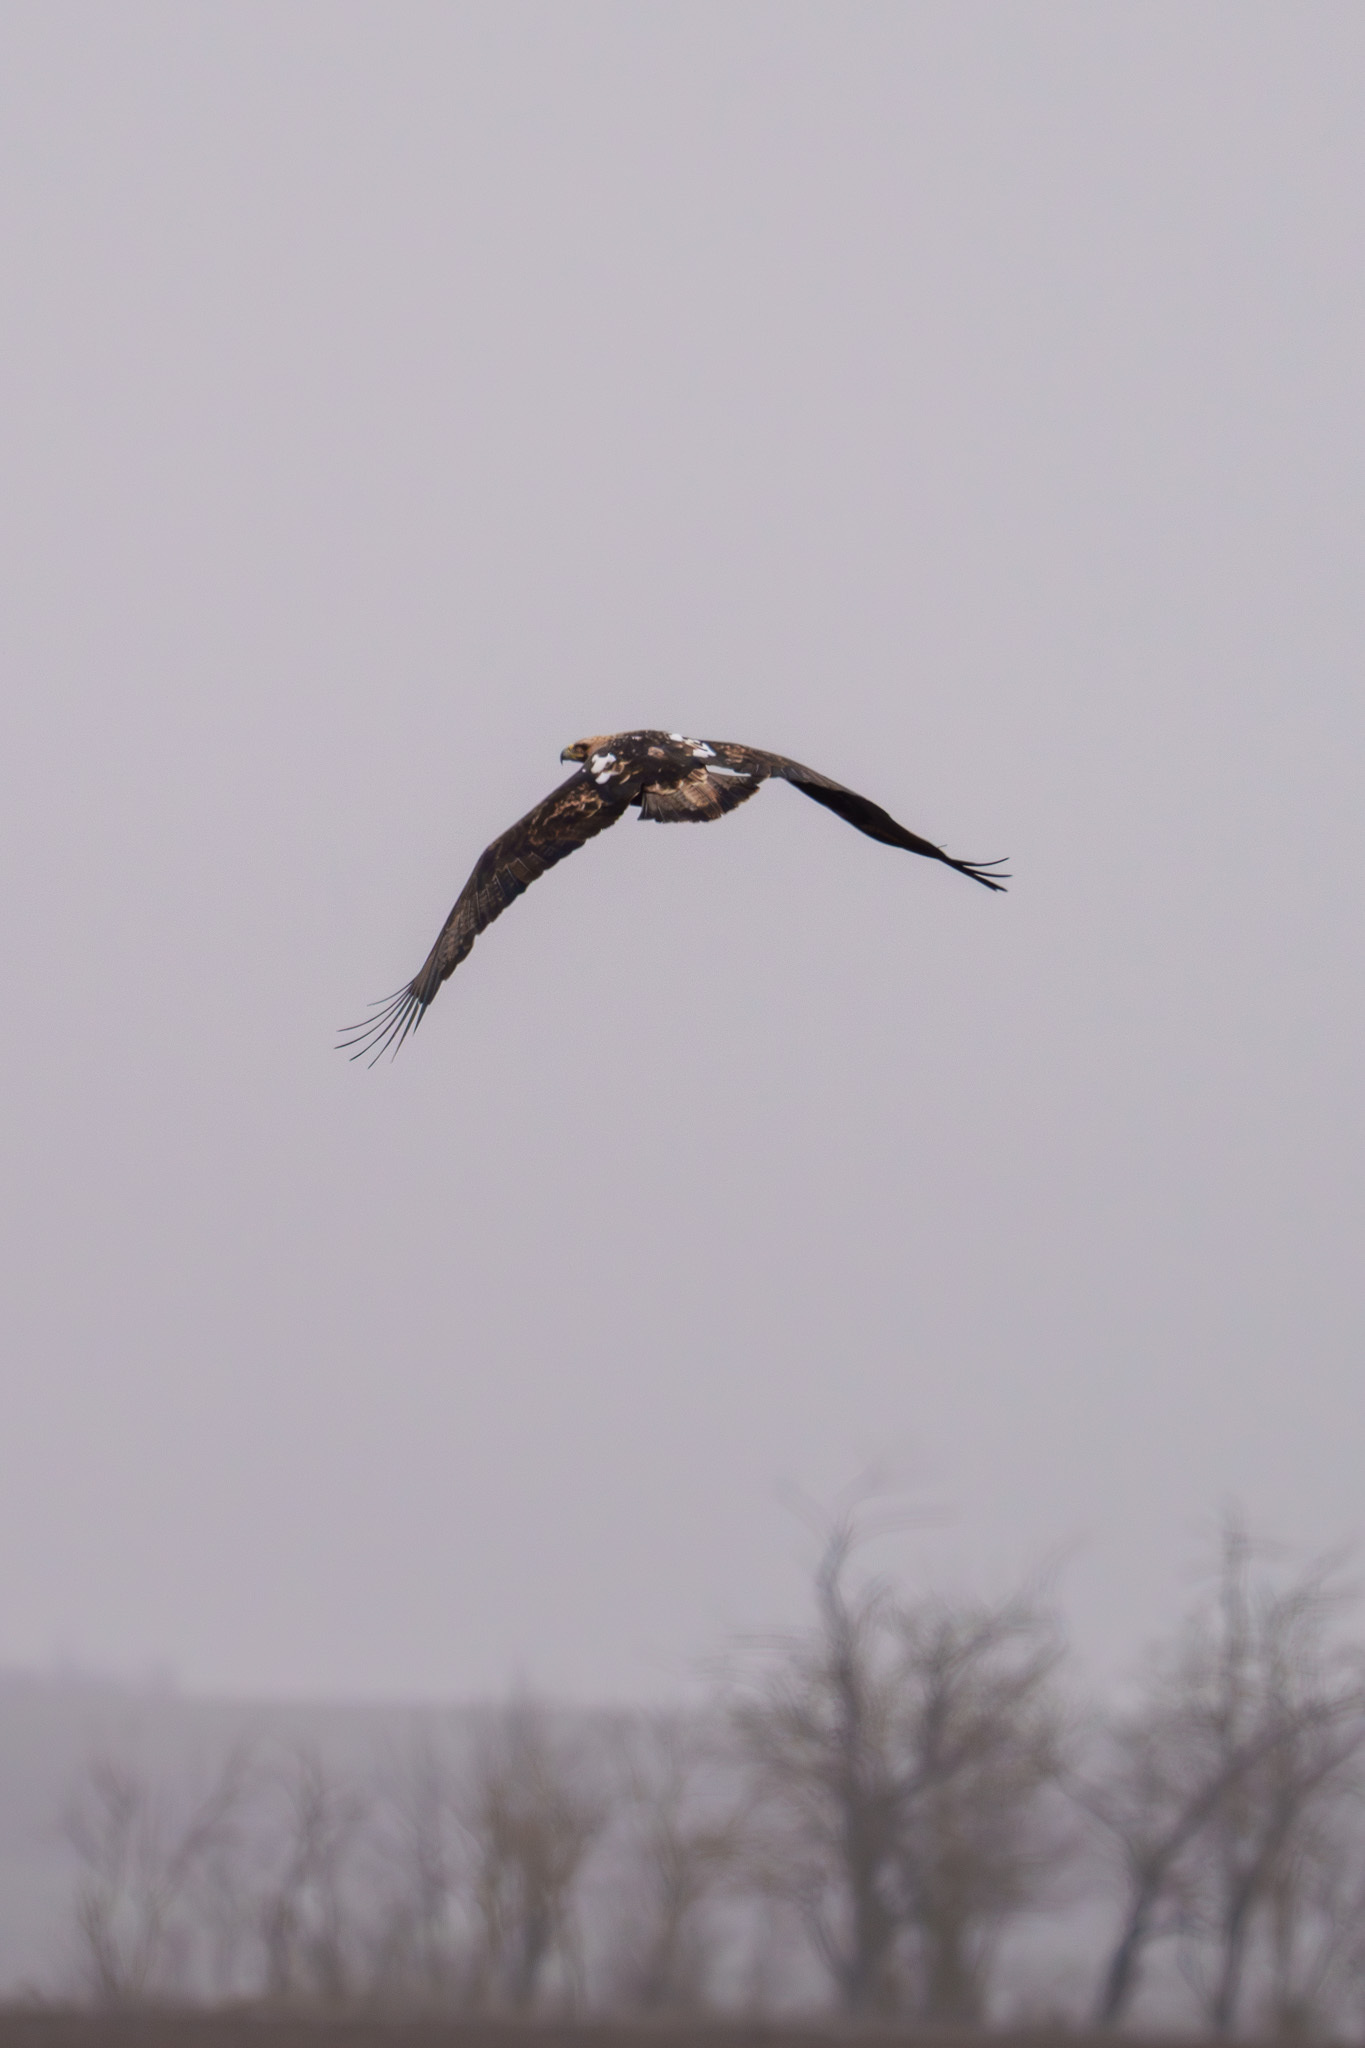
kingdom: Animalia
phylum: Chordata
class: Aves
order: Accipitriformes
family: Accipitridae
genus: Aquila
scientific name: Aquila heliaca
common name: Eastern imperial eagle
